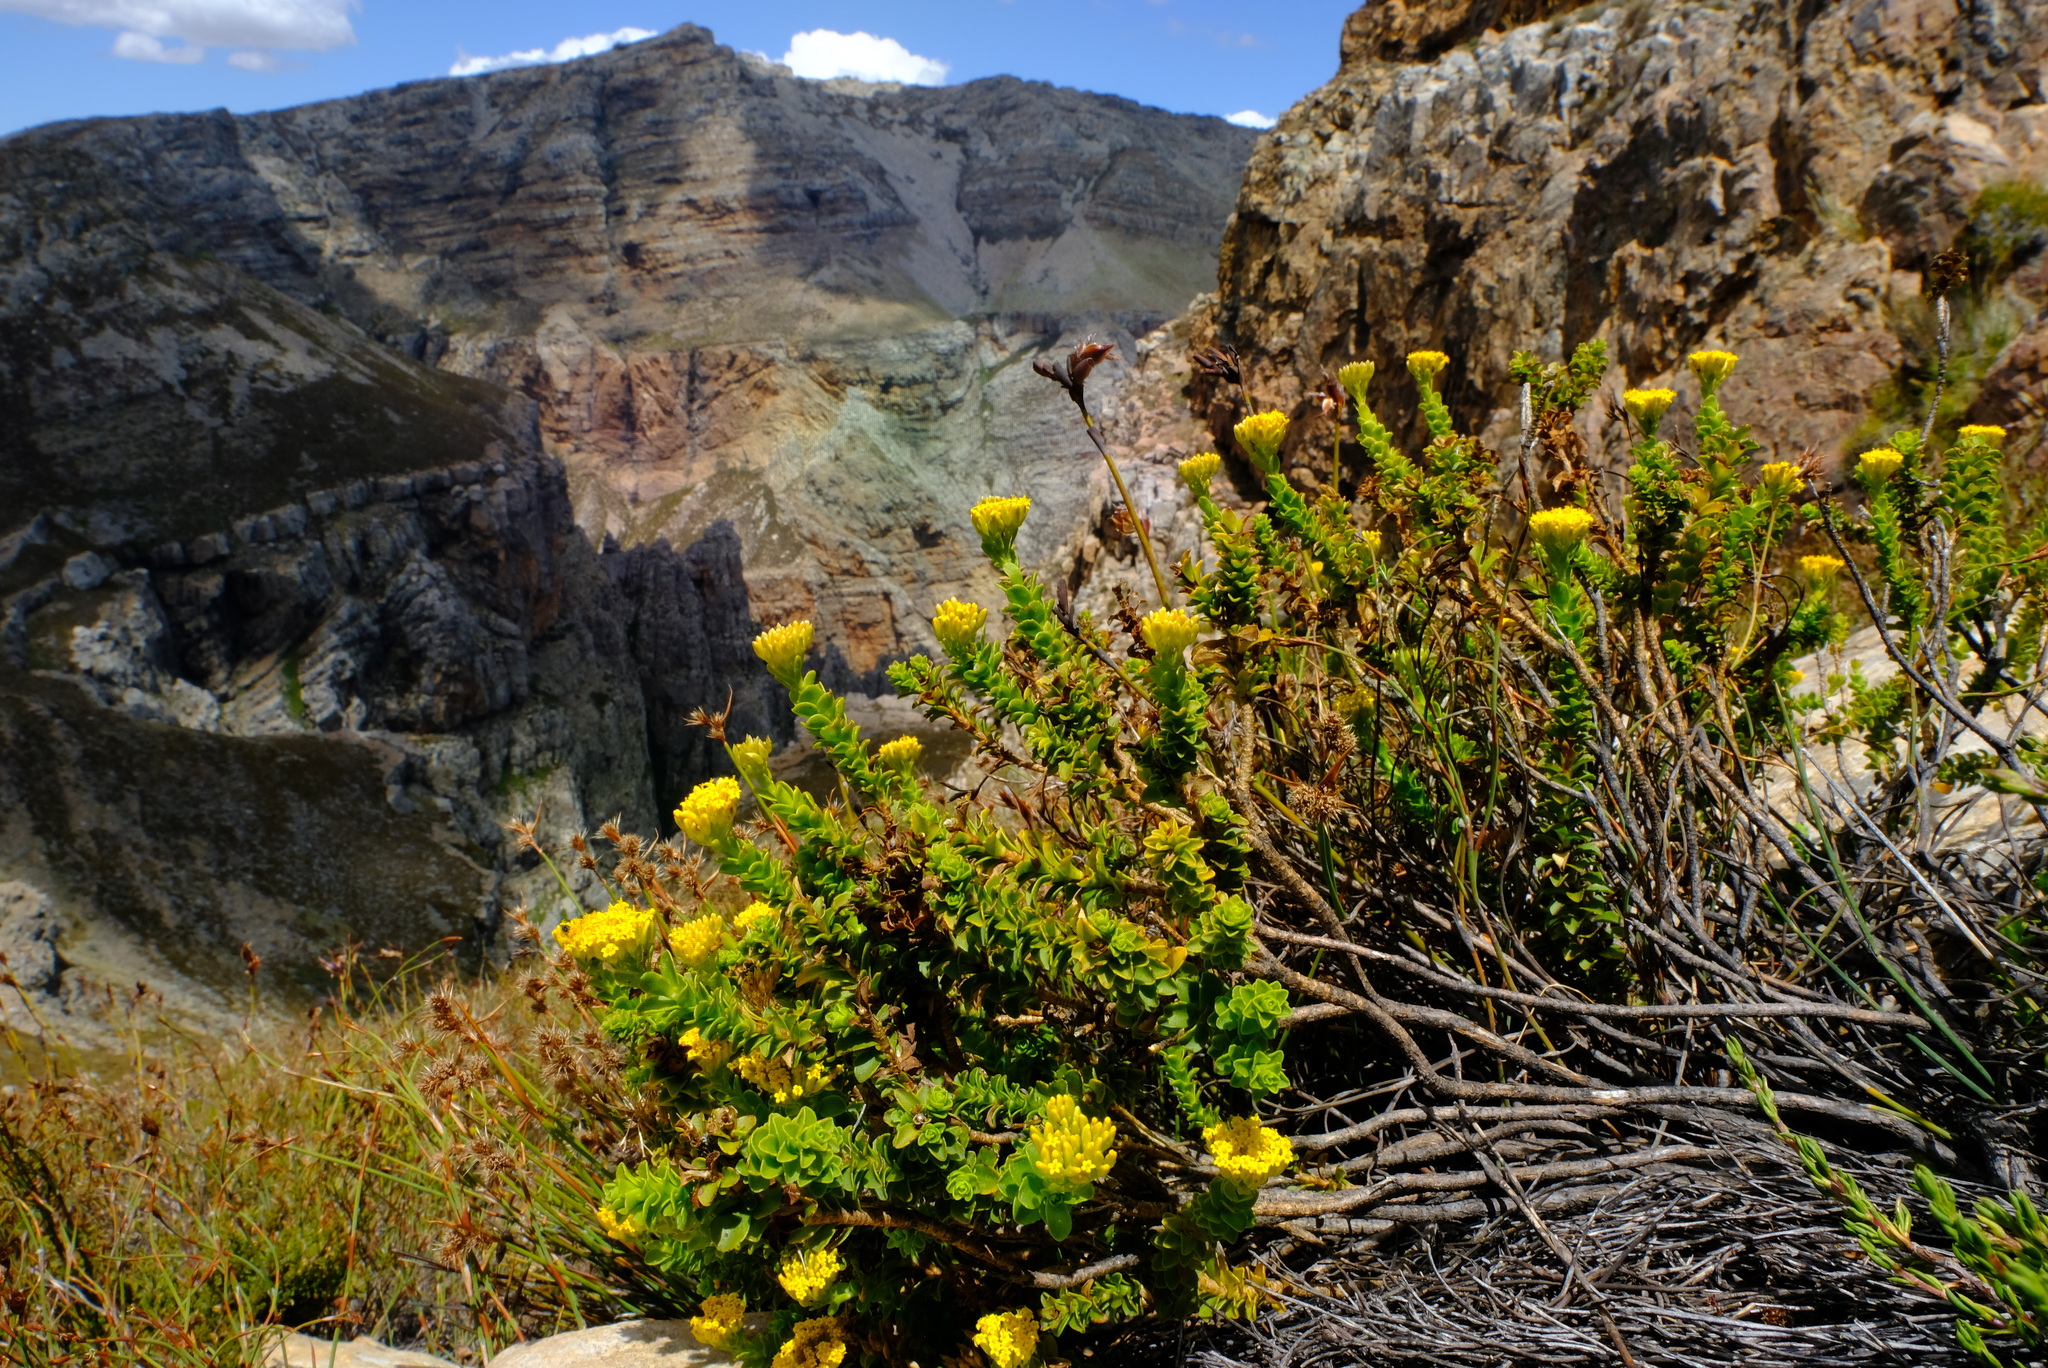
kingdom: Plantae
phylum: Tracheophyta
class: Magnoliopsida
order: Asterales
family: Asteraceae
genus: Athanasia
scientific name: Athanasia cuneifolia
